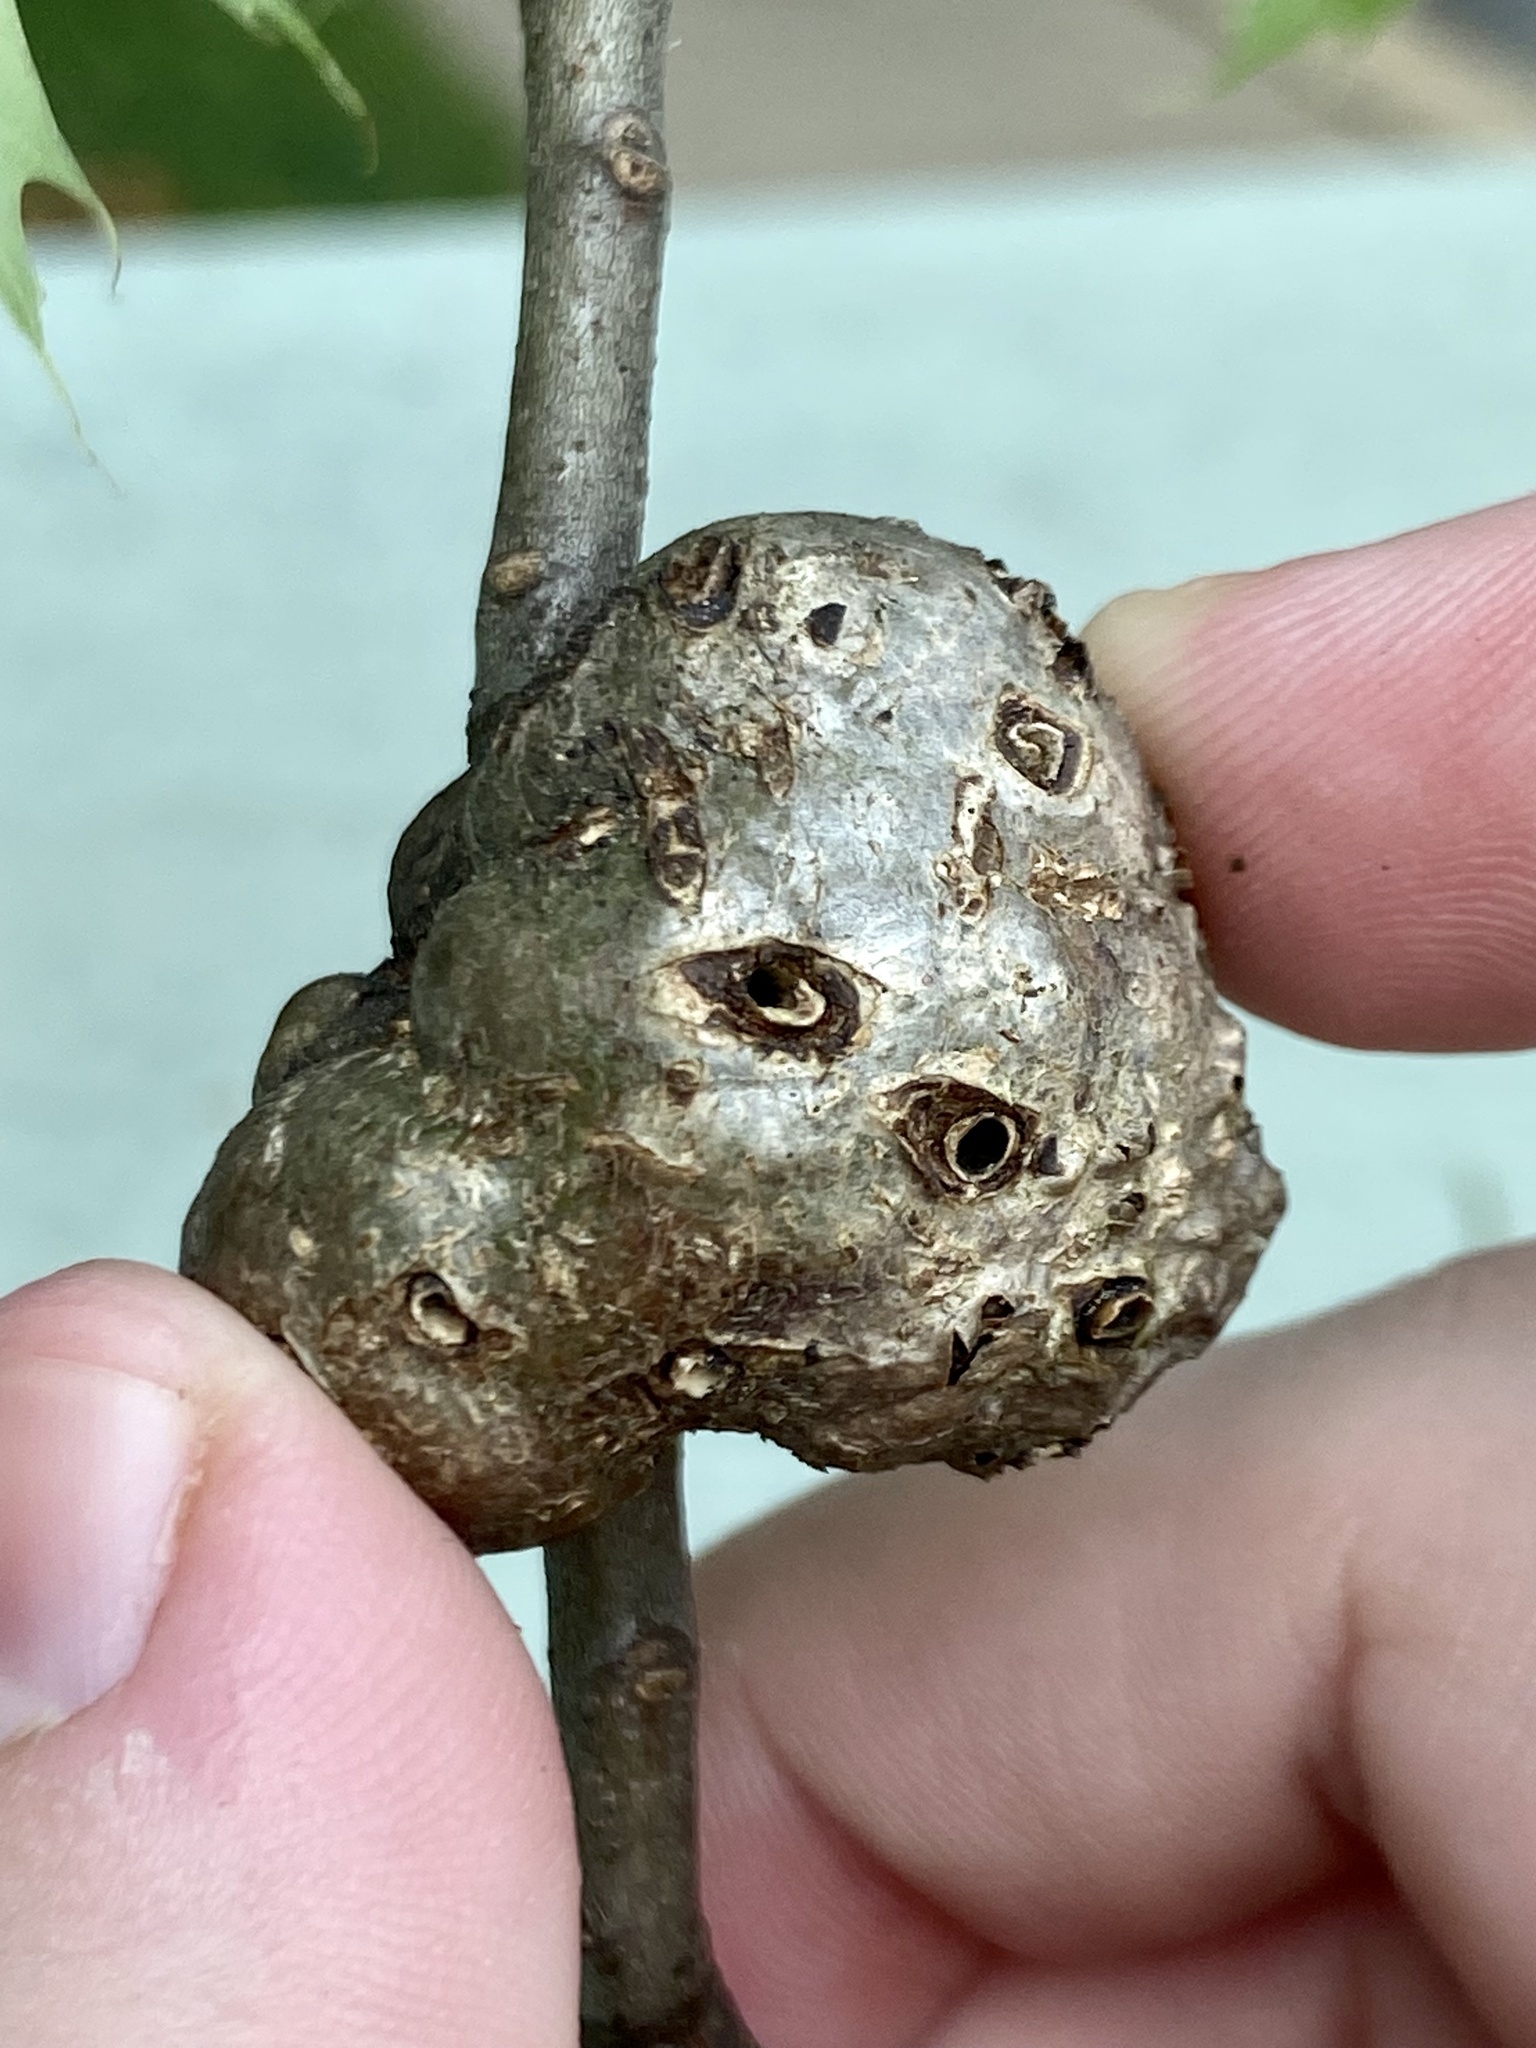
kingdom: Animalia
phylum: Arthropoda
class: Insecta
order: Hymenoptera
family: Cynipidae
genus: Callirhytis
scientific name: Callirhytis
